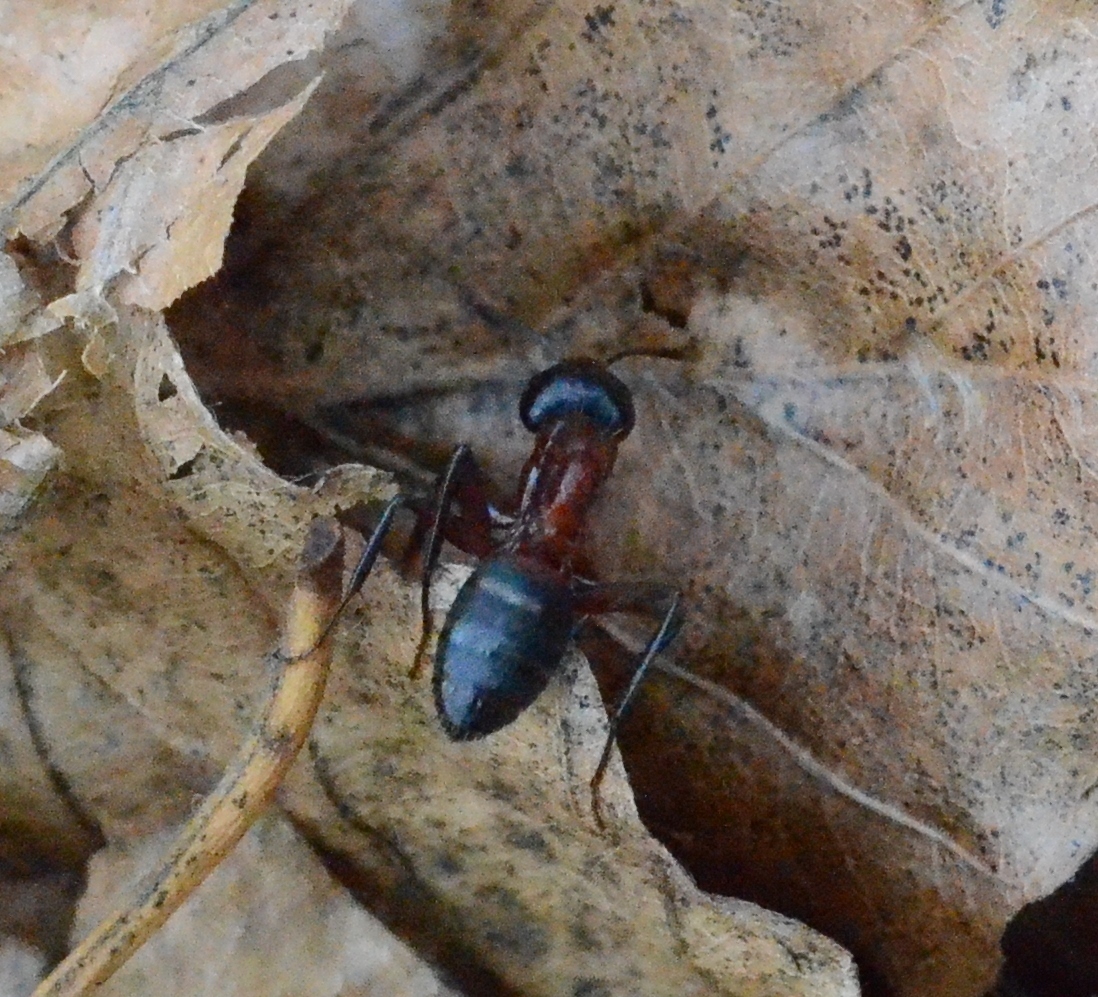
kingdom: Animalia
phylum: Arthropoda
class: Insecta
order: Hymenoptera
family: Formicidae
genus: Camponotus
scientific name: Camponotus ligniperdus
